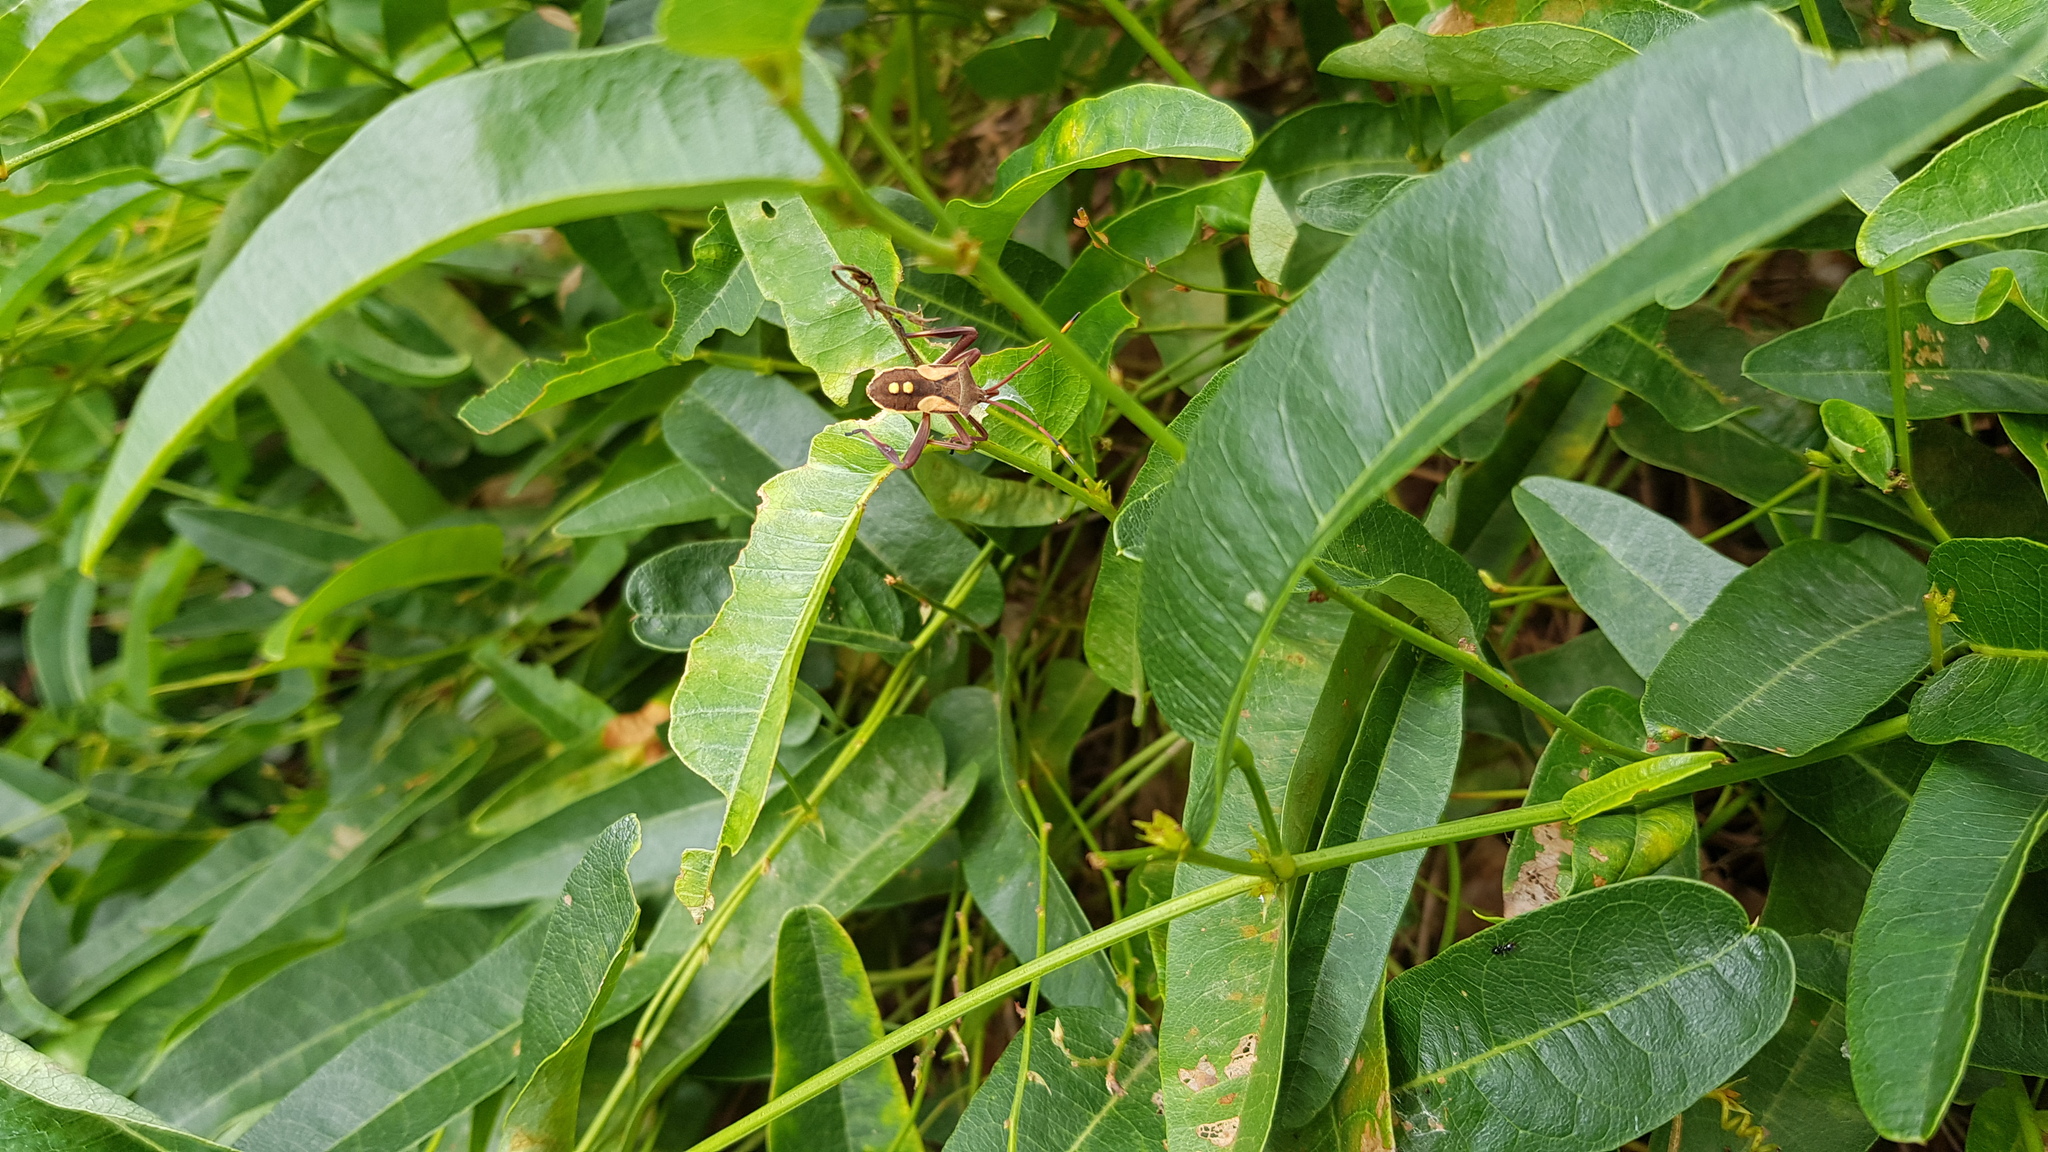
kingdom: Animalia
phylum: Arthropoda
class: Insecta
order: Hemiptera
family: Coreidae
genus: Mictis
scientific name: Mictis profana
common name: Crusader bug
